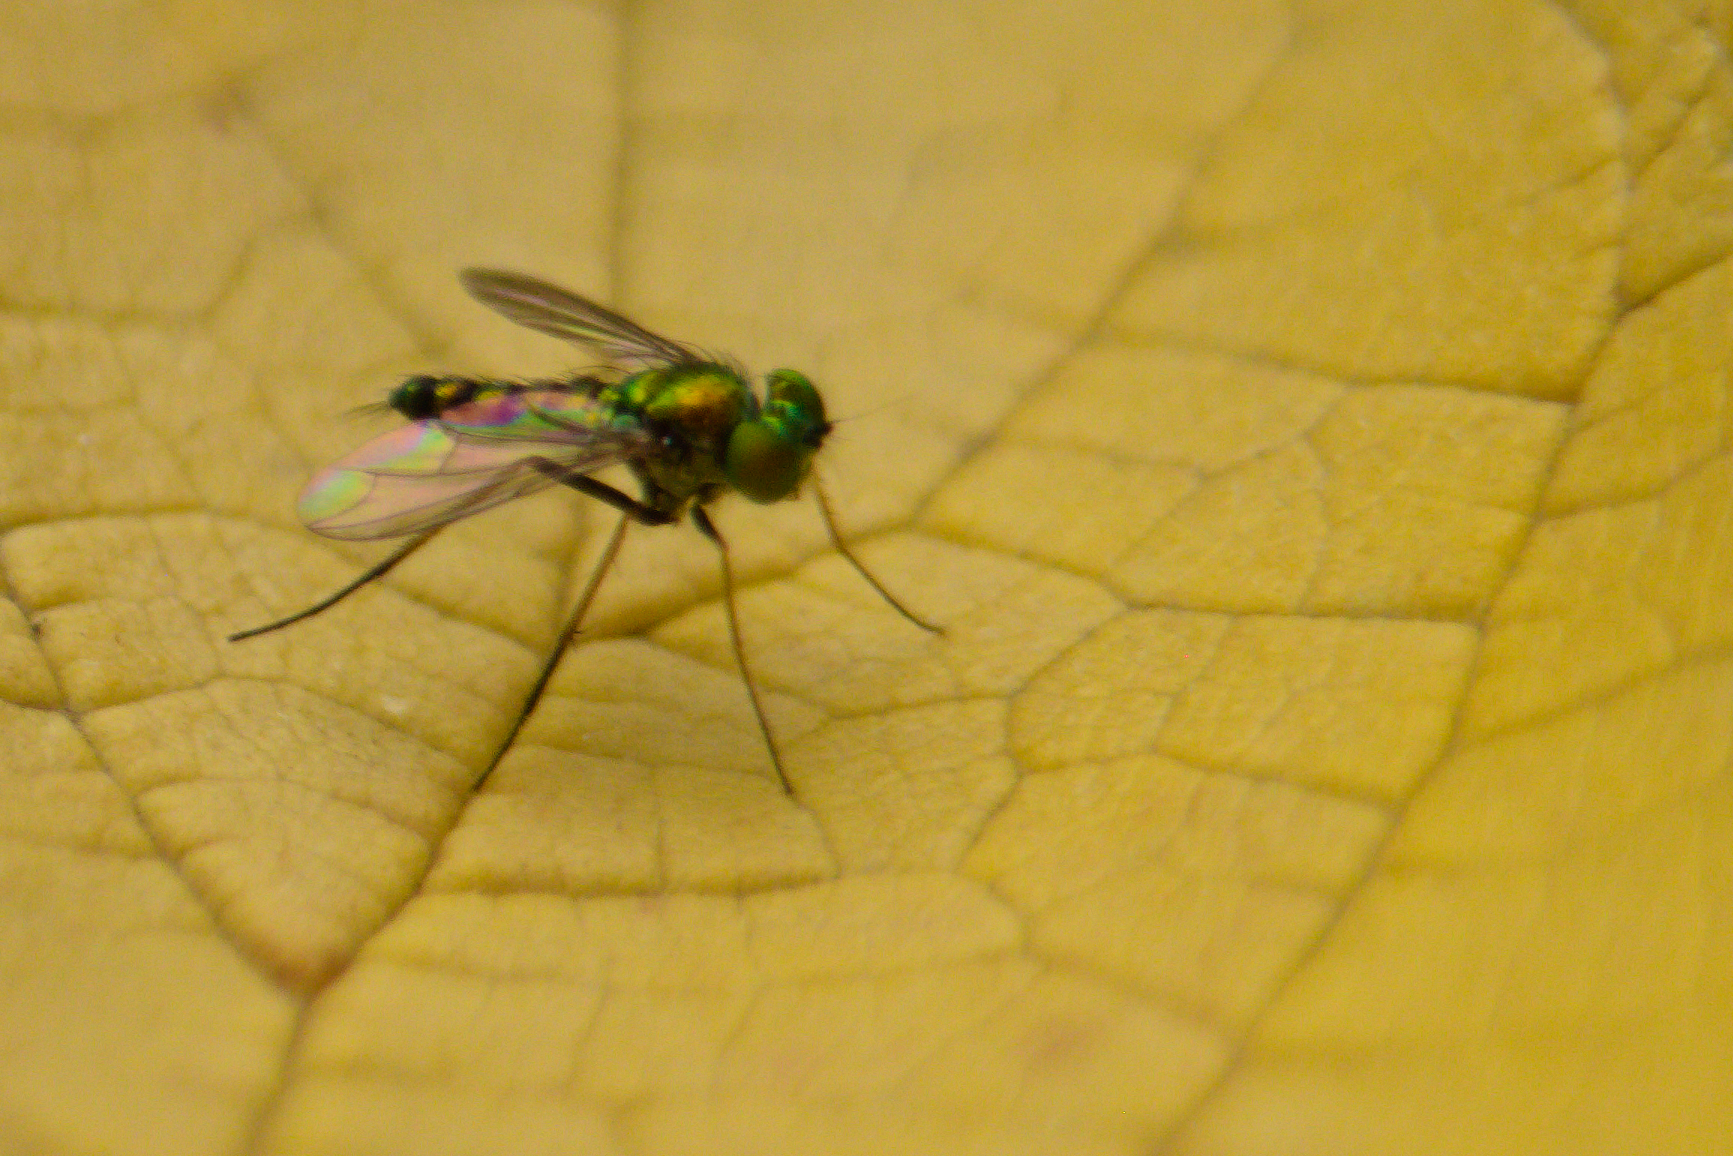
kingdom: Animalia
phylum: Arthropoda
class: Insecta
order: Diptera
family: Dolichopodidae
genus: Condylostylus
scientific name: Condylostylus caudatus
